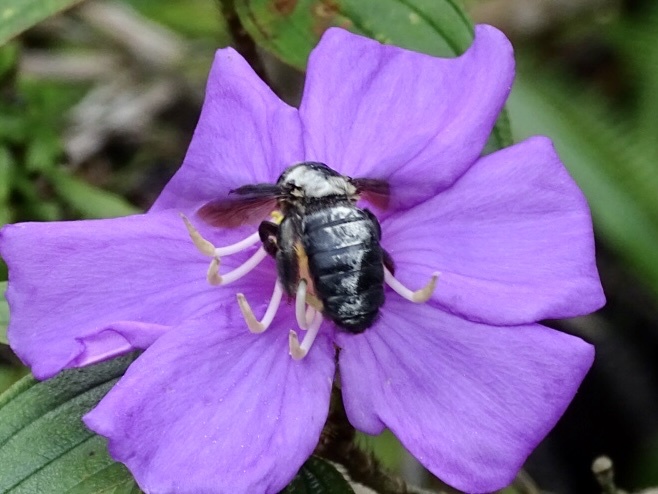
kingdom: Animalia
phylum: Arthropoda
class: Insecta
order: Hymenoptera
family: Apidae
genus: Xylocopa
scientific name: Xylocopa phalothorax
